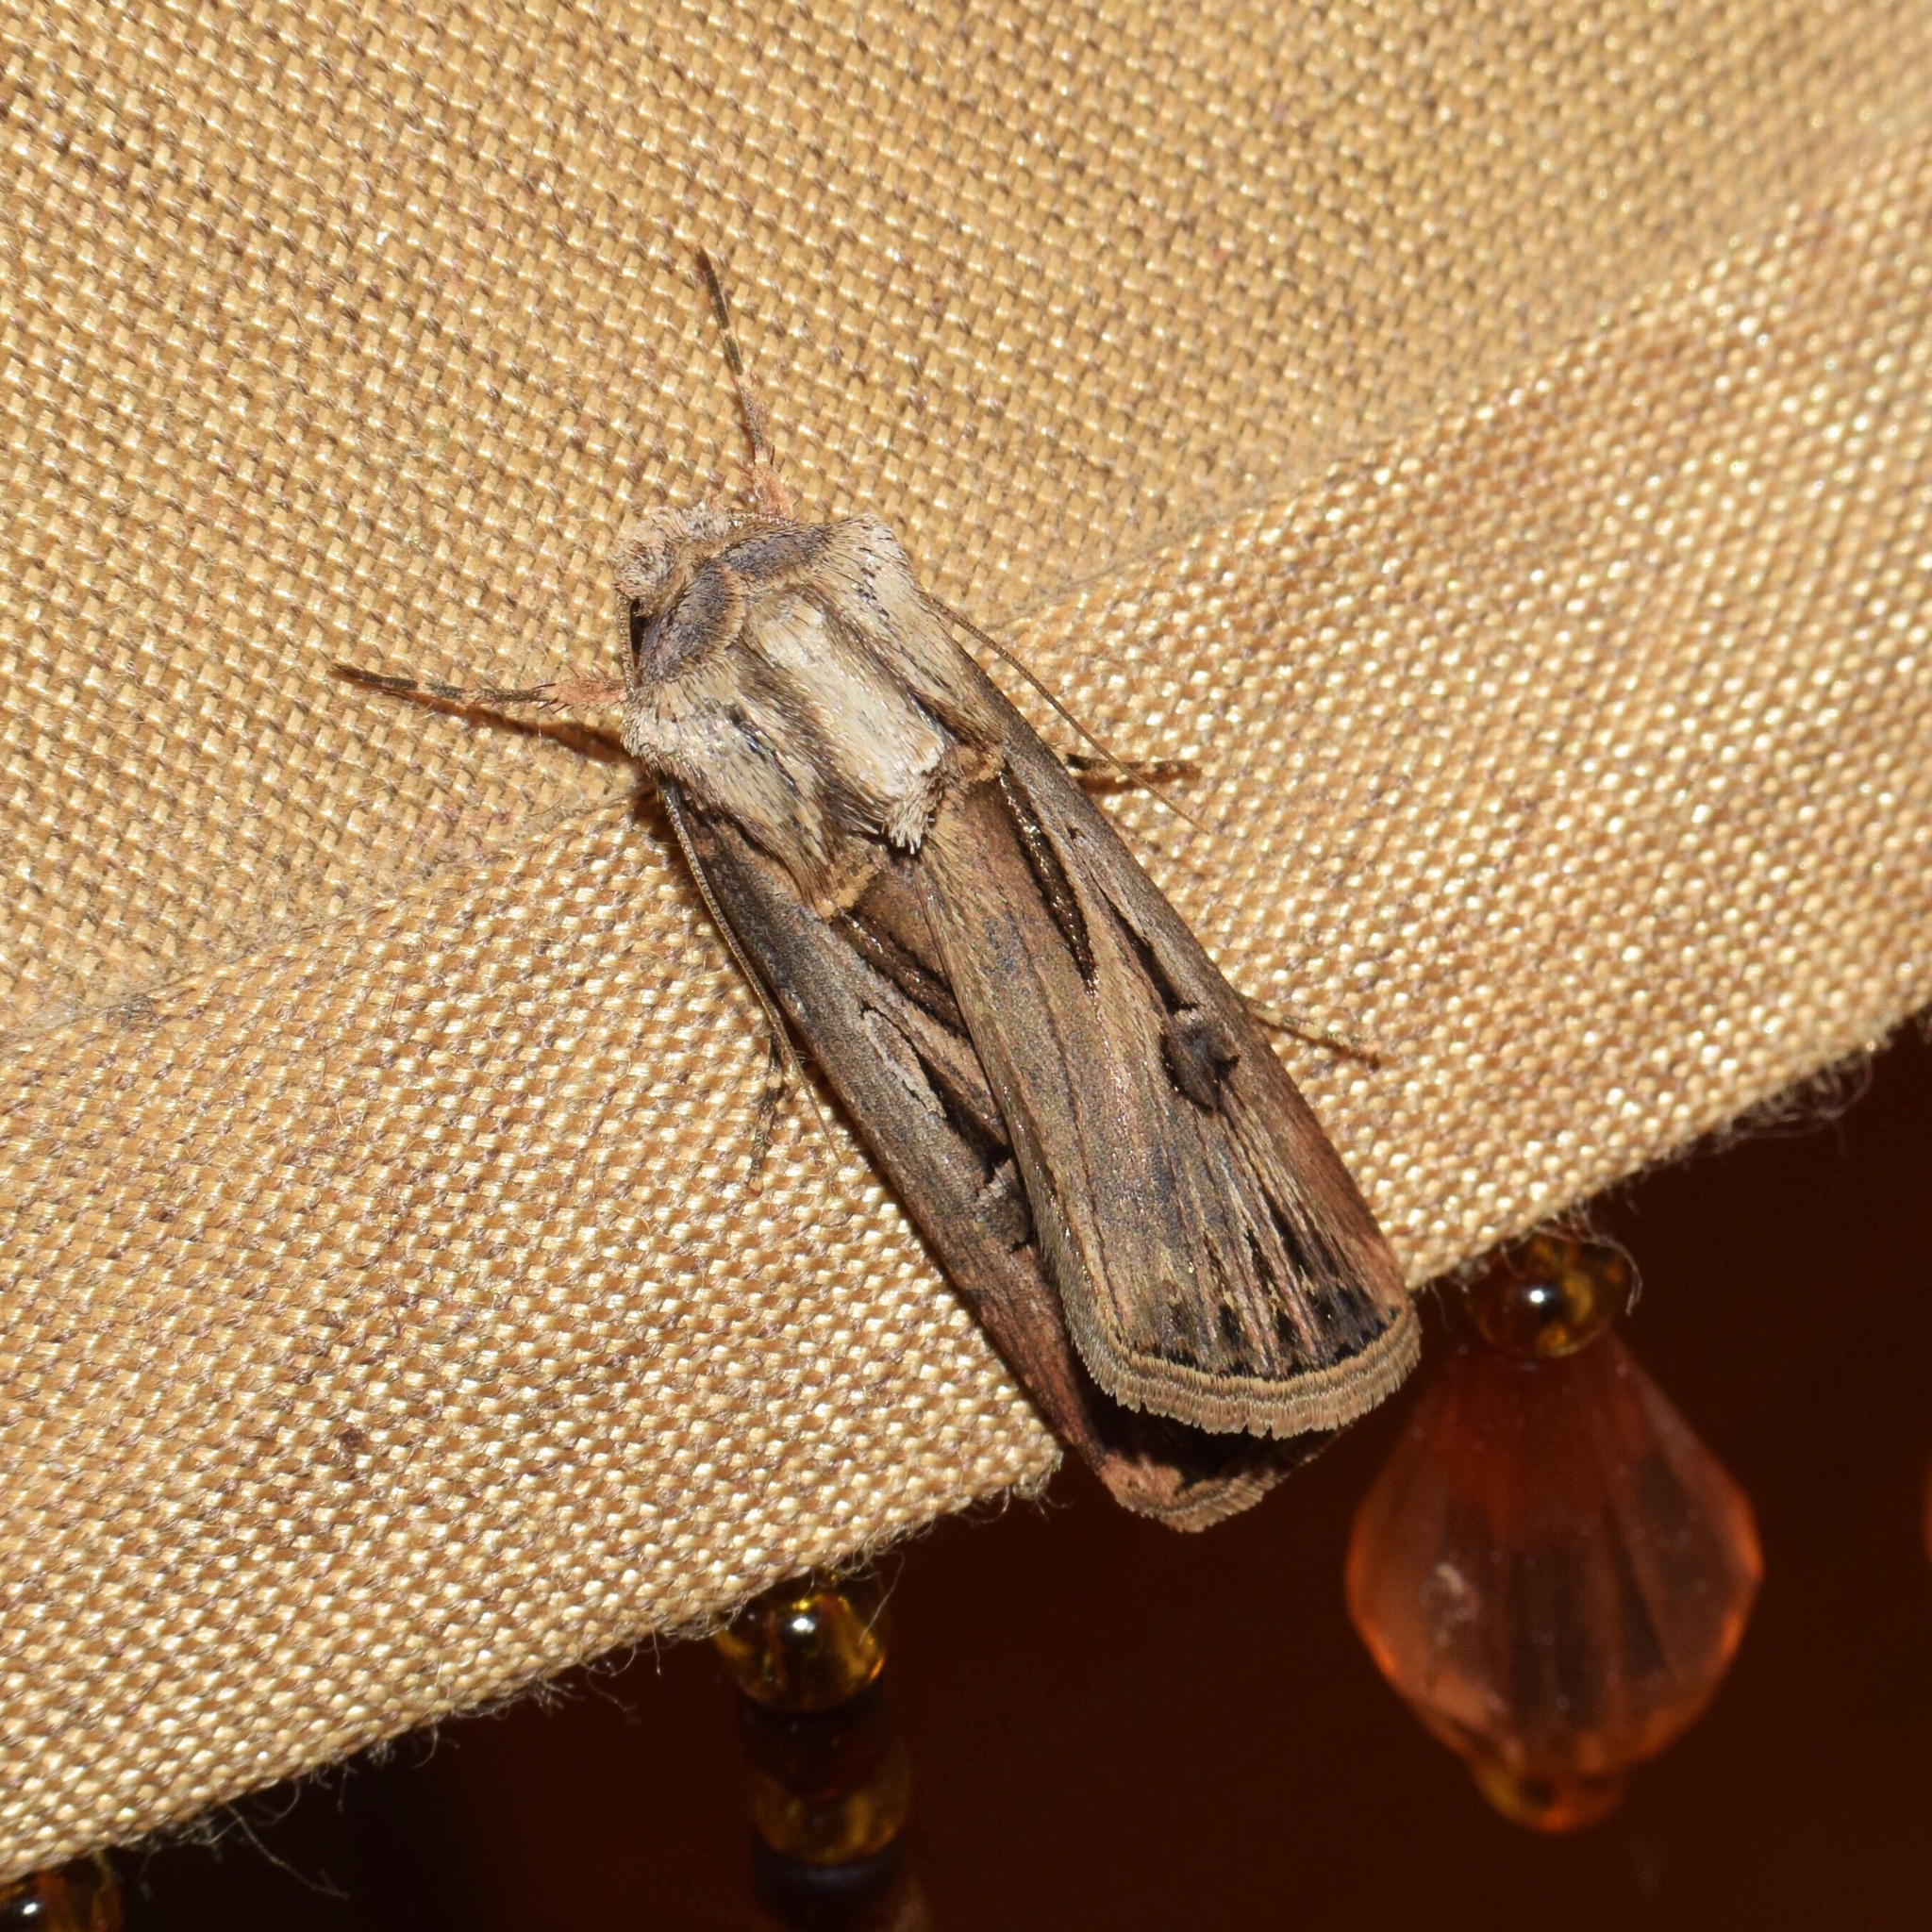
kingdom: Animalia
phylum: Arthropoda
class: Insecta
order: Lepidoptera
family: Noctuidae
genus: Agrotis
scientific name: Agrotis
